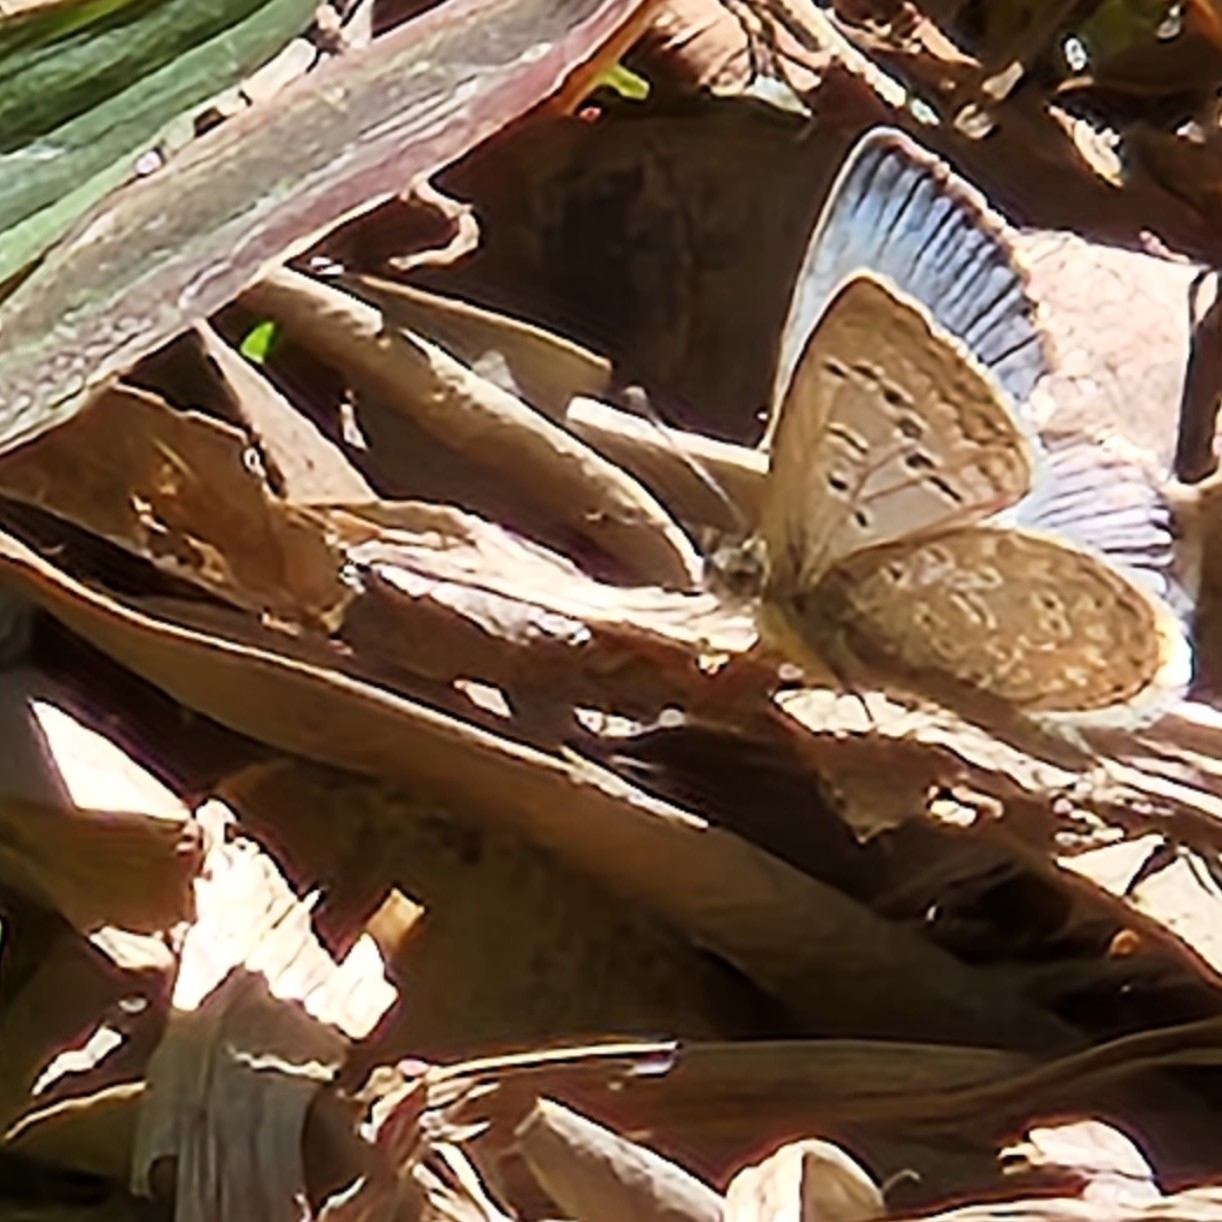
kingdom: Animalia
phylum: Arthropoda
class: Insecta
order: Lepidoptera
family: Lycaenidae
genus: Pseudozizeeria
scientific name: Pseudozizeeria maha
